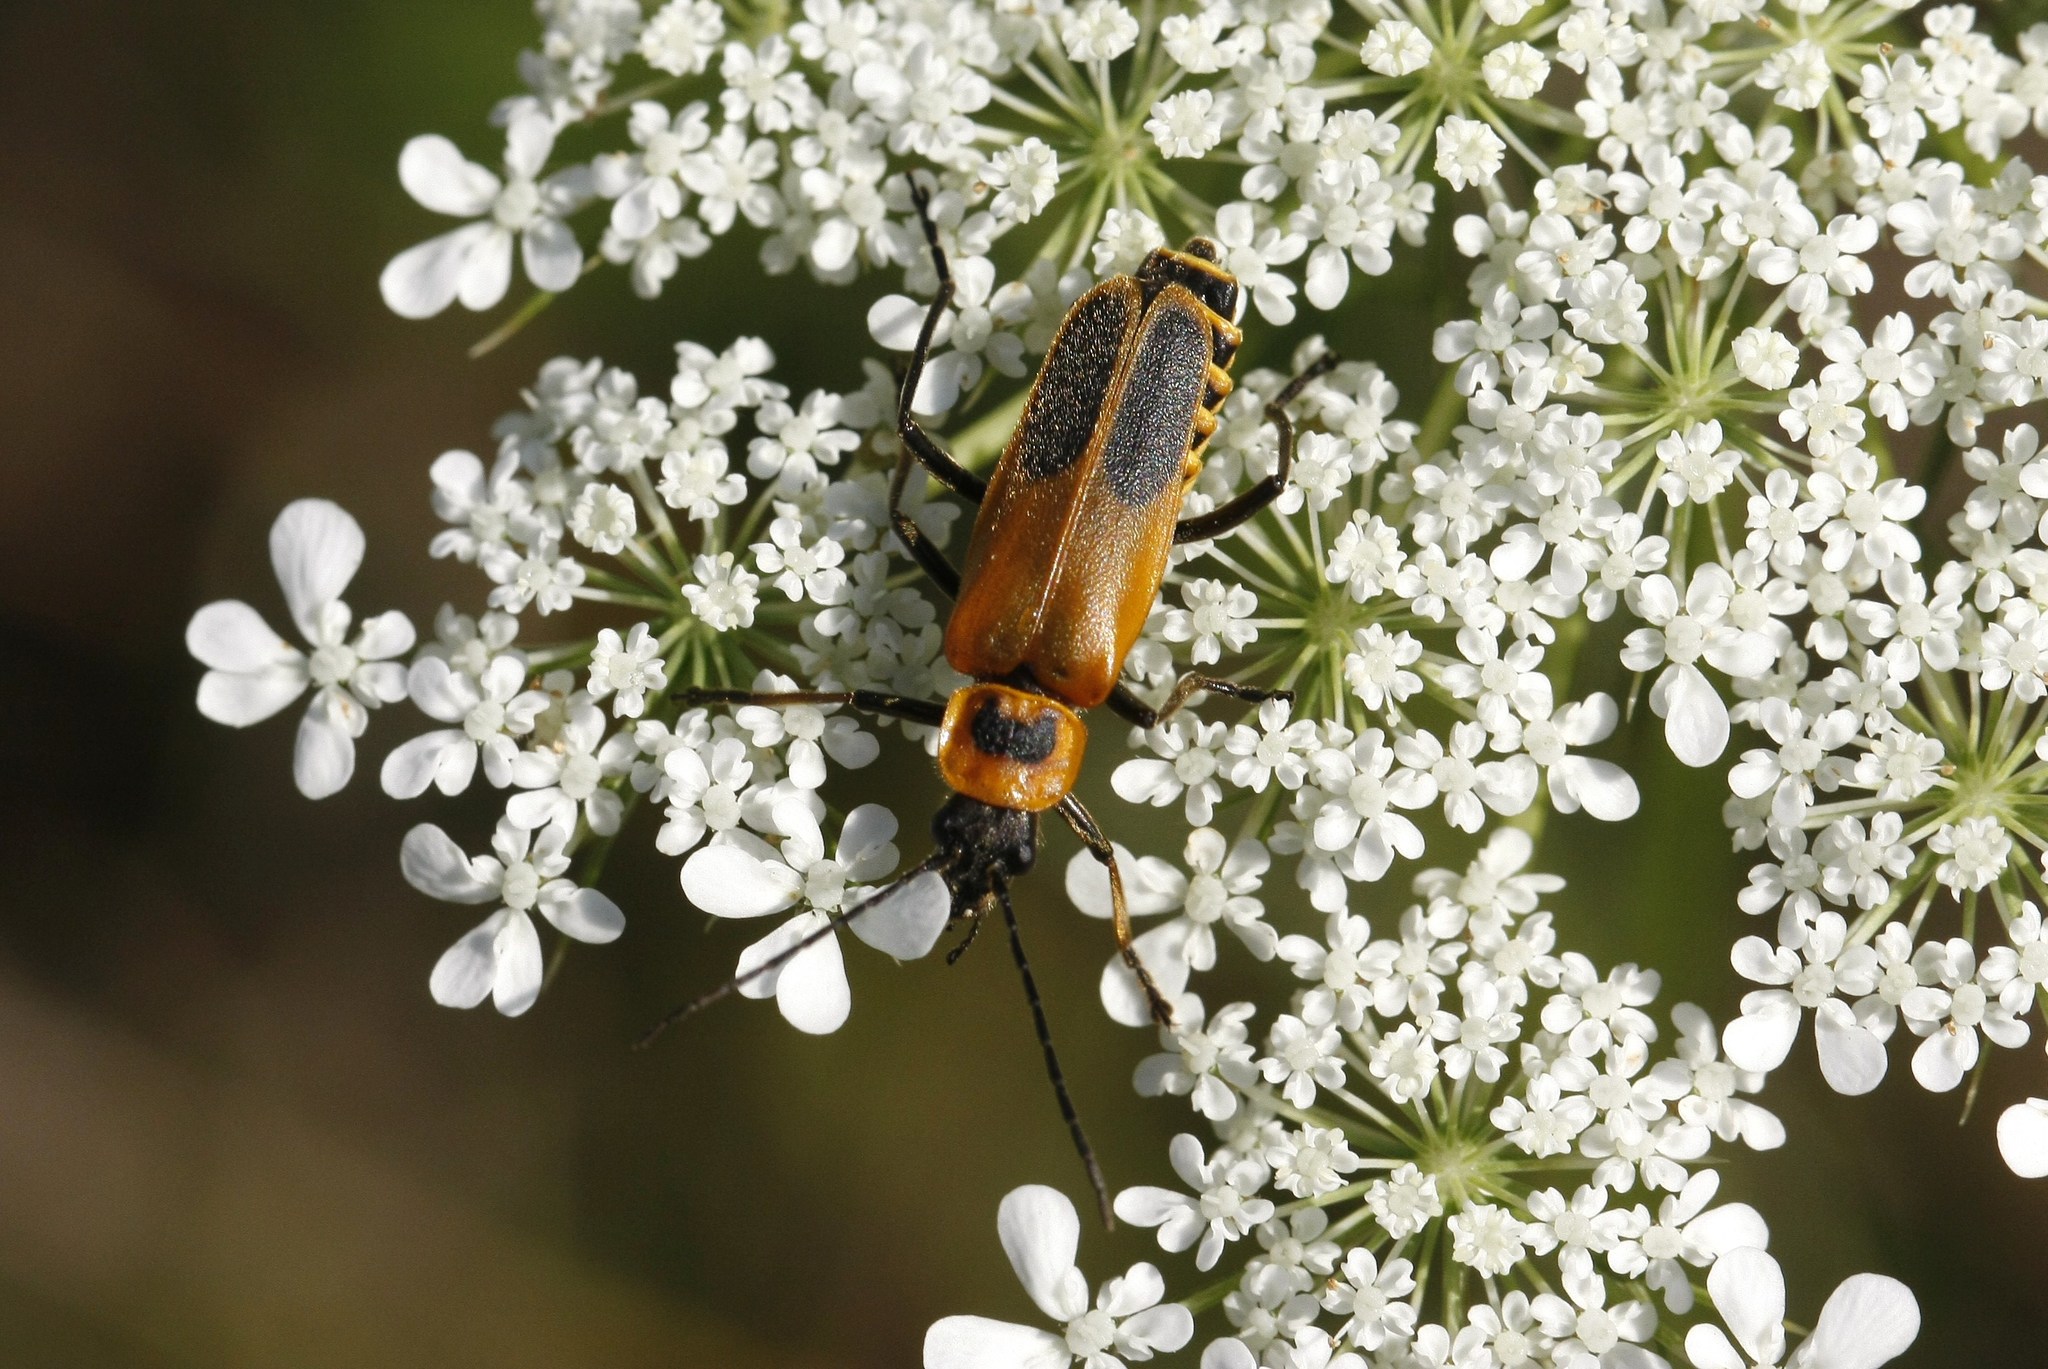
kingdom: Animalia
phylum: Arthropoda
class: Insecta
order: Coleoptera
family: Cantharidae
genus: Chauliognathus
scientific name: Chauliognathus pensylvanicus
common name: Goldenrod soldier beetle
